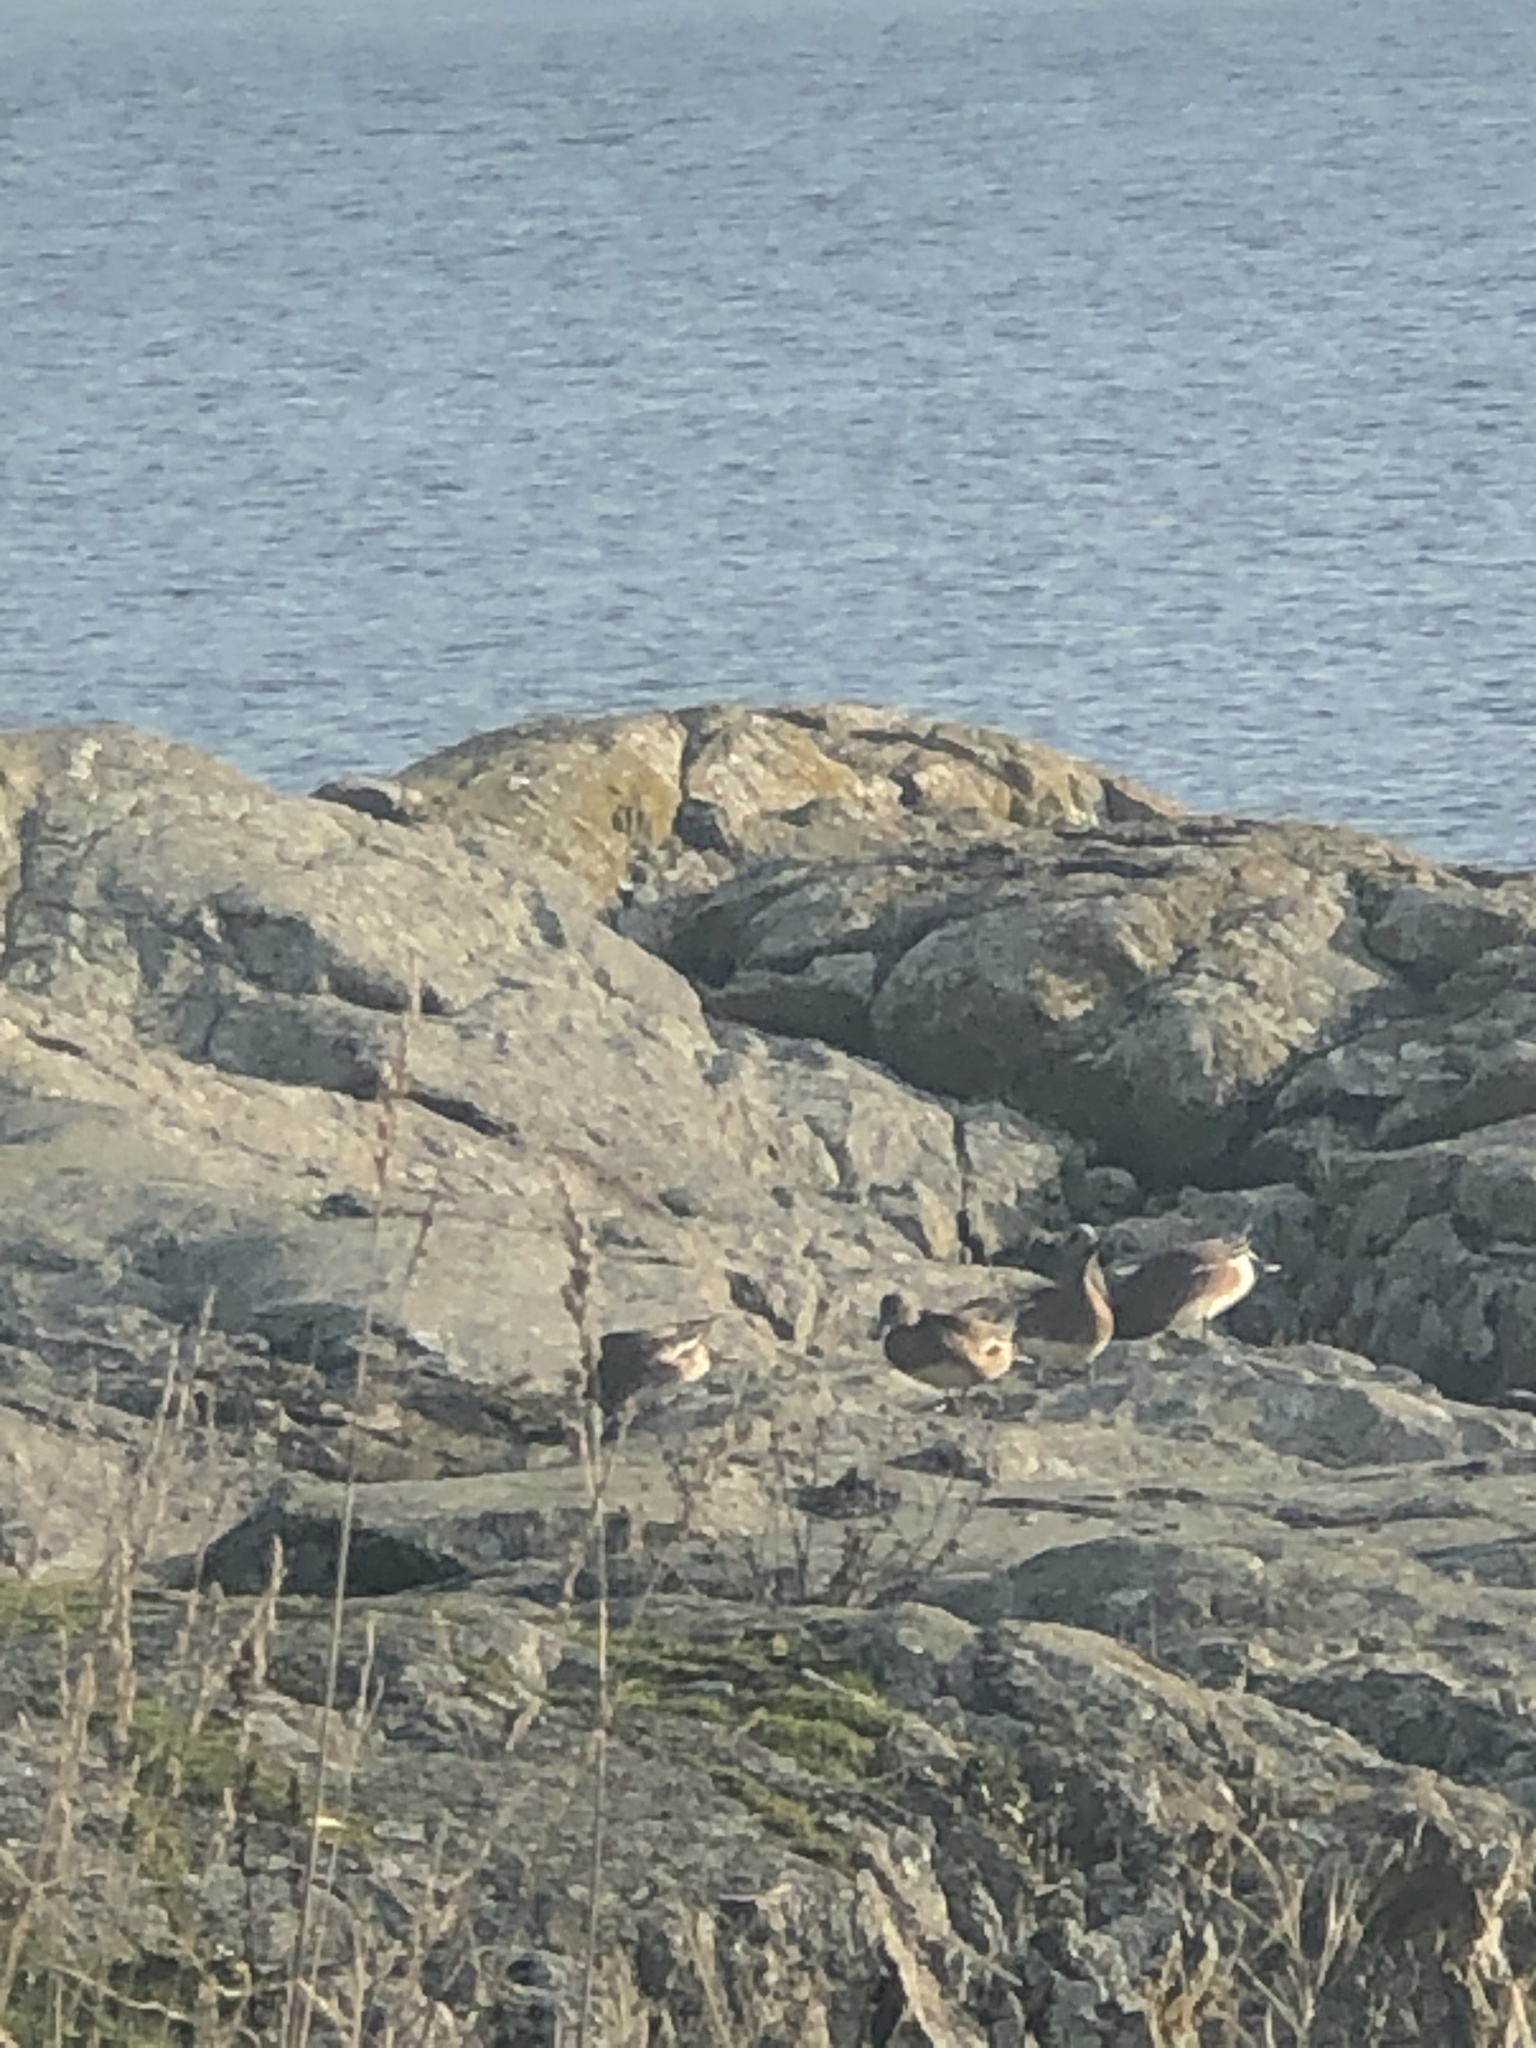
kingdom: Animalia
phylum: Chordata
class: Aves
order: Anseriformes
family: Anatidae
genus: Mareca
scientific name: Mareca americana
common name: American wigeon
